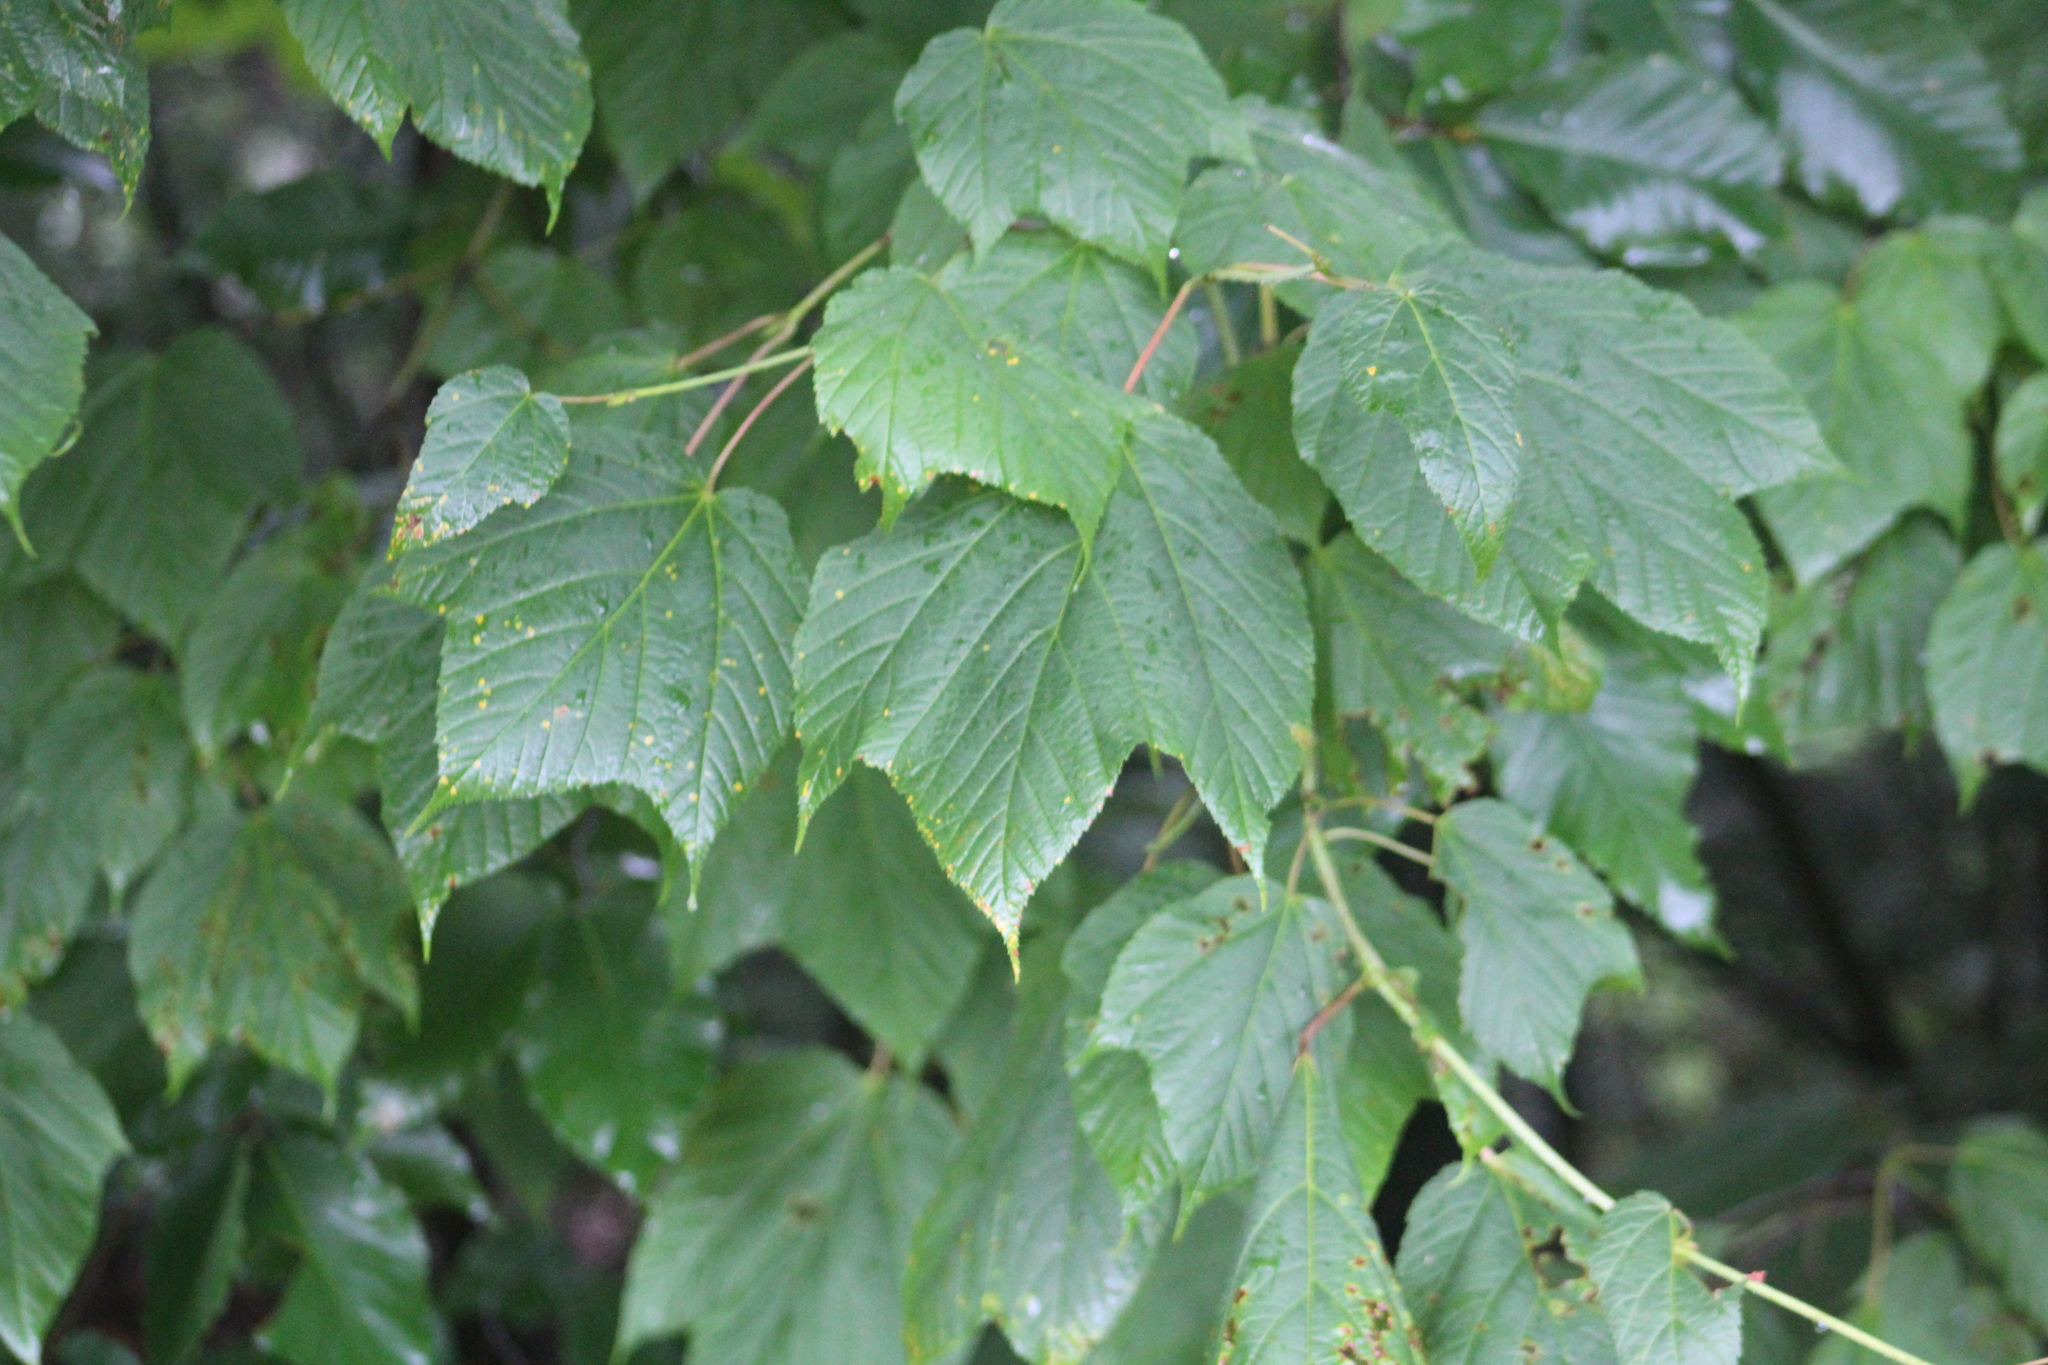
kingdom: Plantae
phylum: Tracheophyta
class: Magnoliopsida
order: Sapindales
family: Sapindaceae
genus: Acer
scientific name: Acer pensylvanicum
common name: Moosewood
